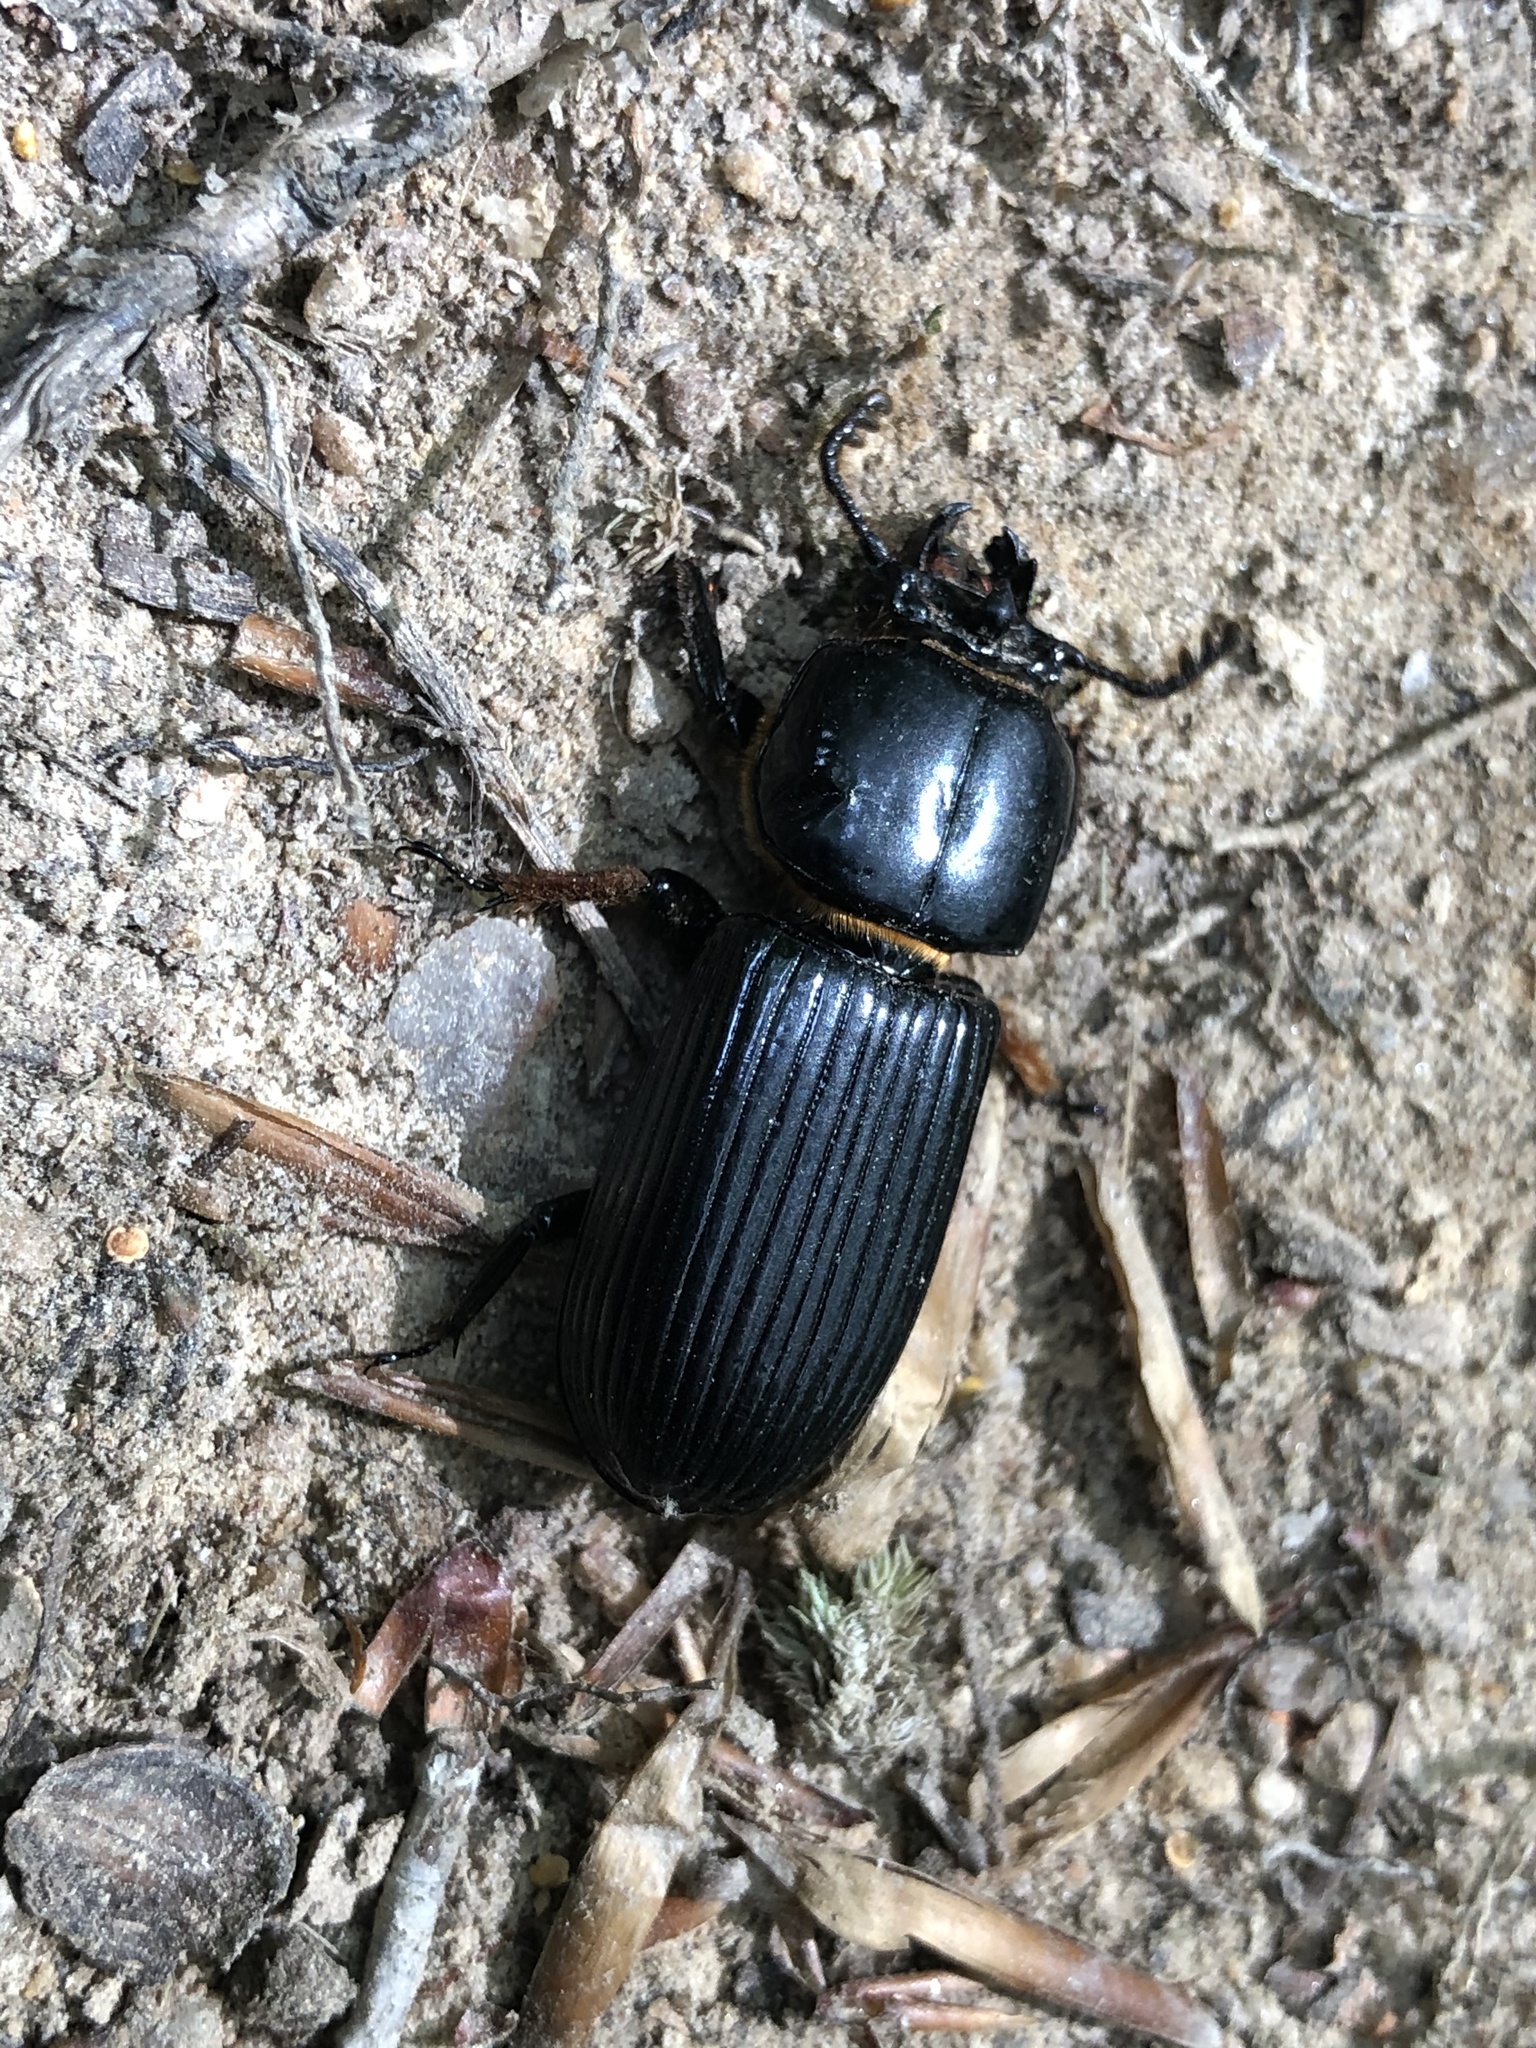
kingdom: Animalia
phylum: Arthropoda
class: Insecta
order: Coleoptera
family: Passalidae
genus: Odontotaenius
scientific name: Odontotaenius disjunctus
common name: Patent leather beetle
